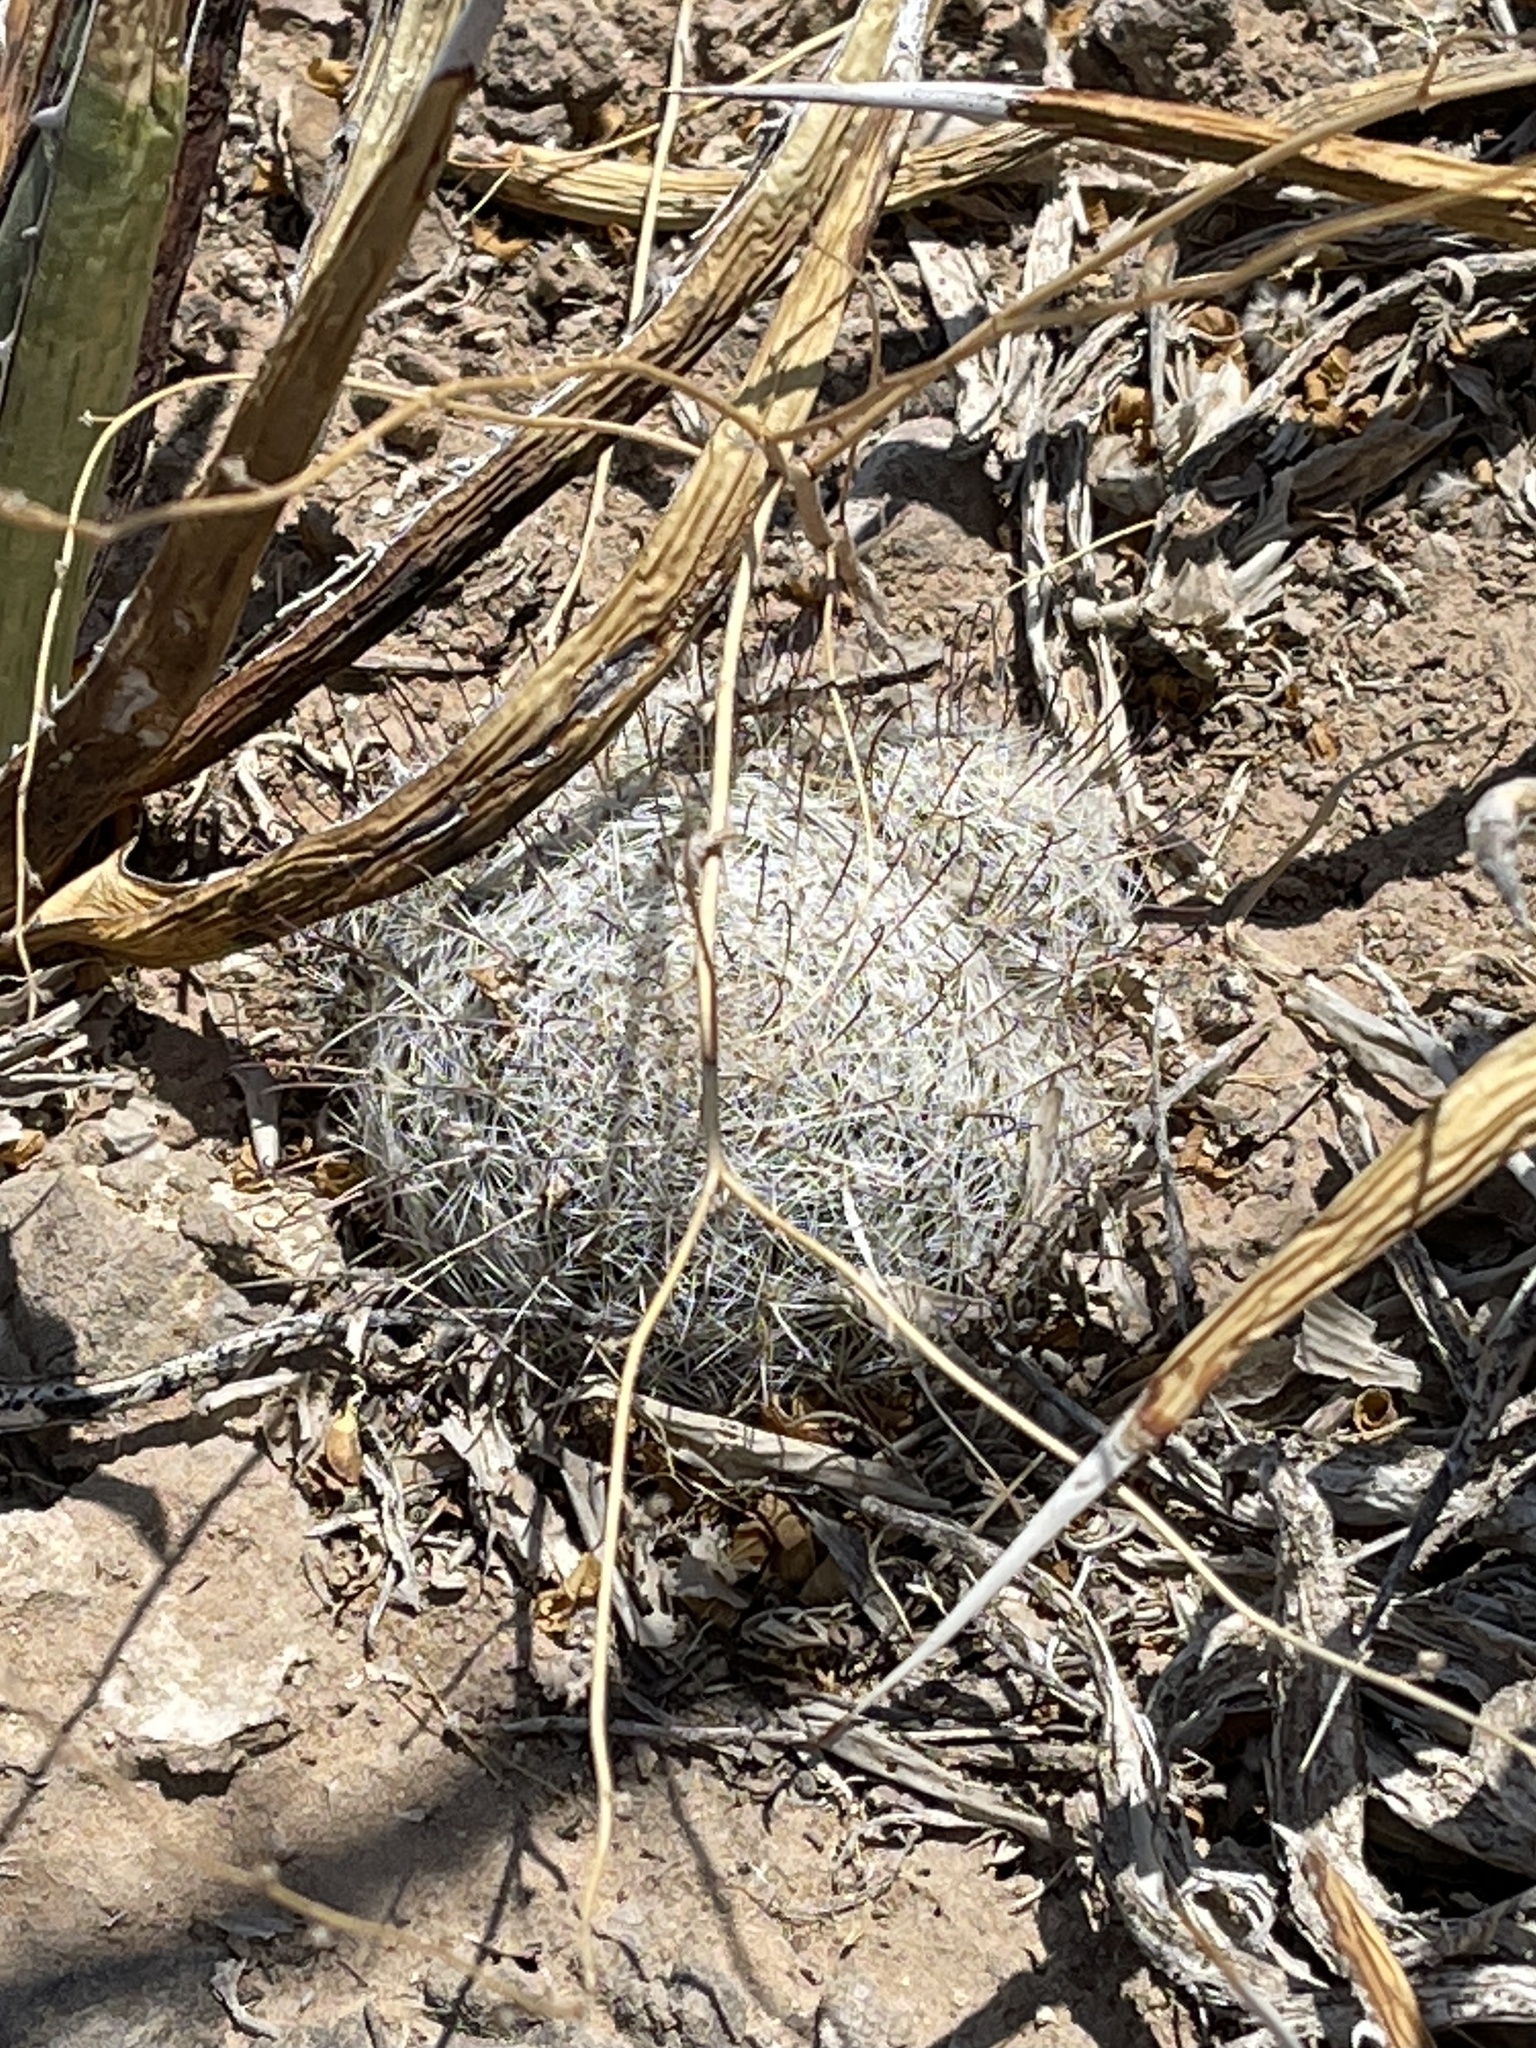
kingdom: Plantae
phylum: Tracheophyta
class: Magnoliopsida
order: Caryophyllales
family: Cactaceae
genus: Cochemiea
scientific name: Cochemiea grahamii
